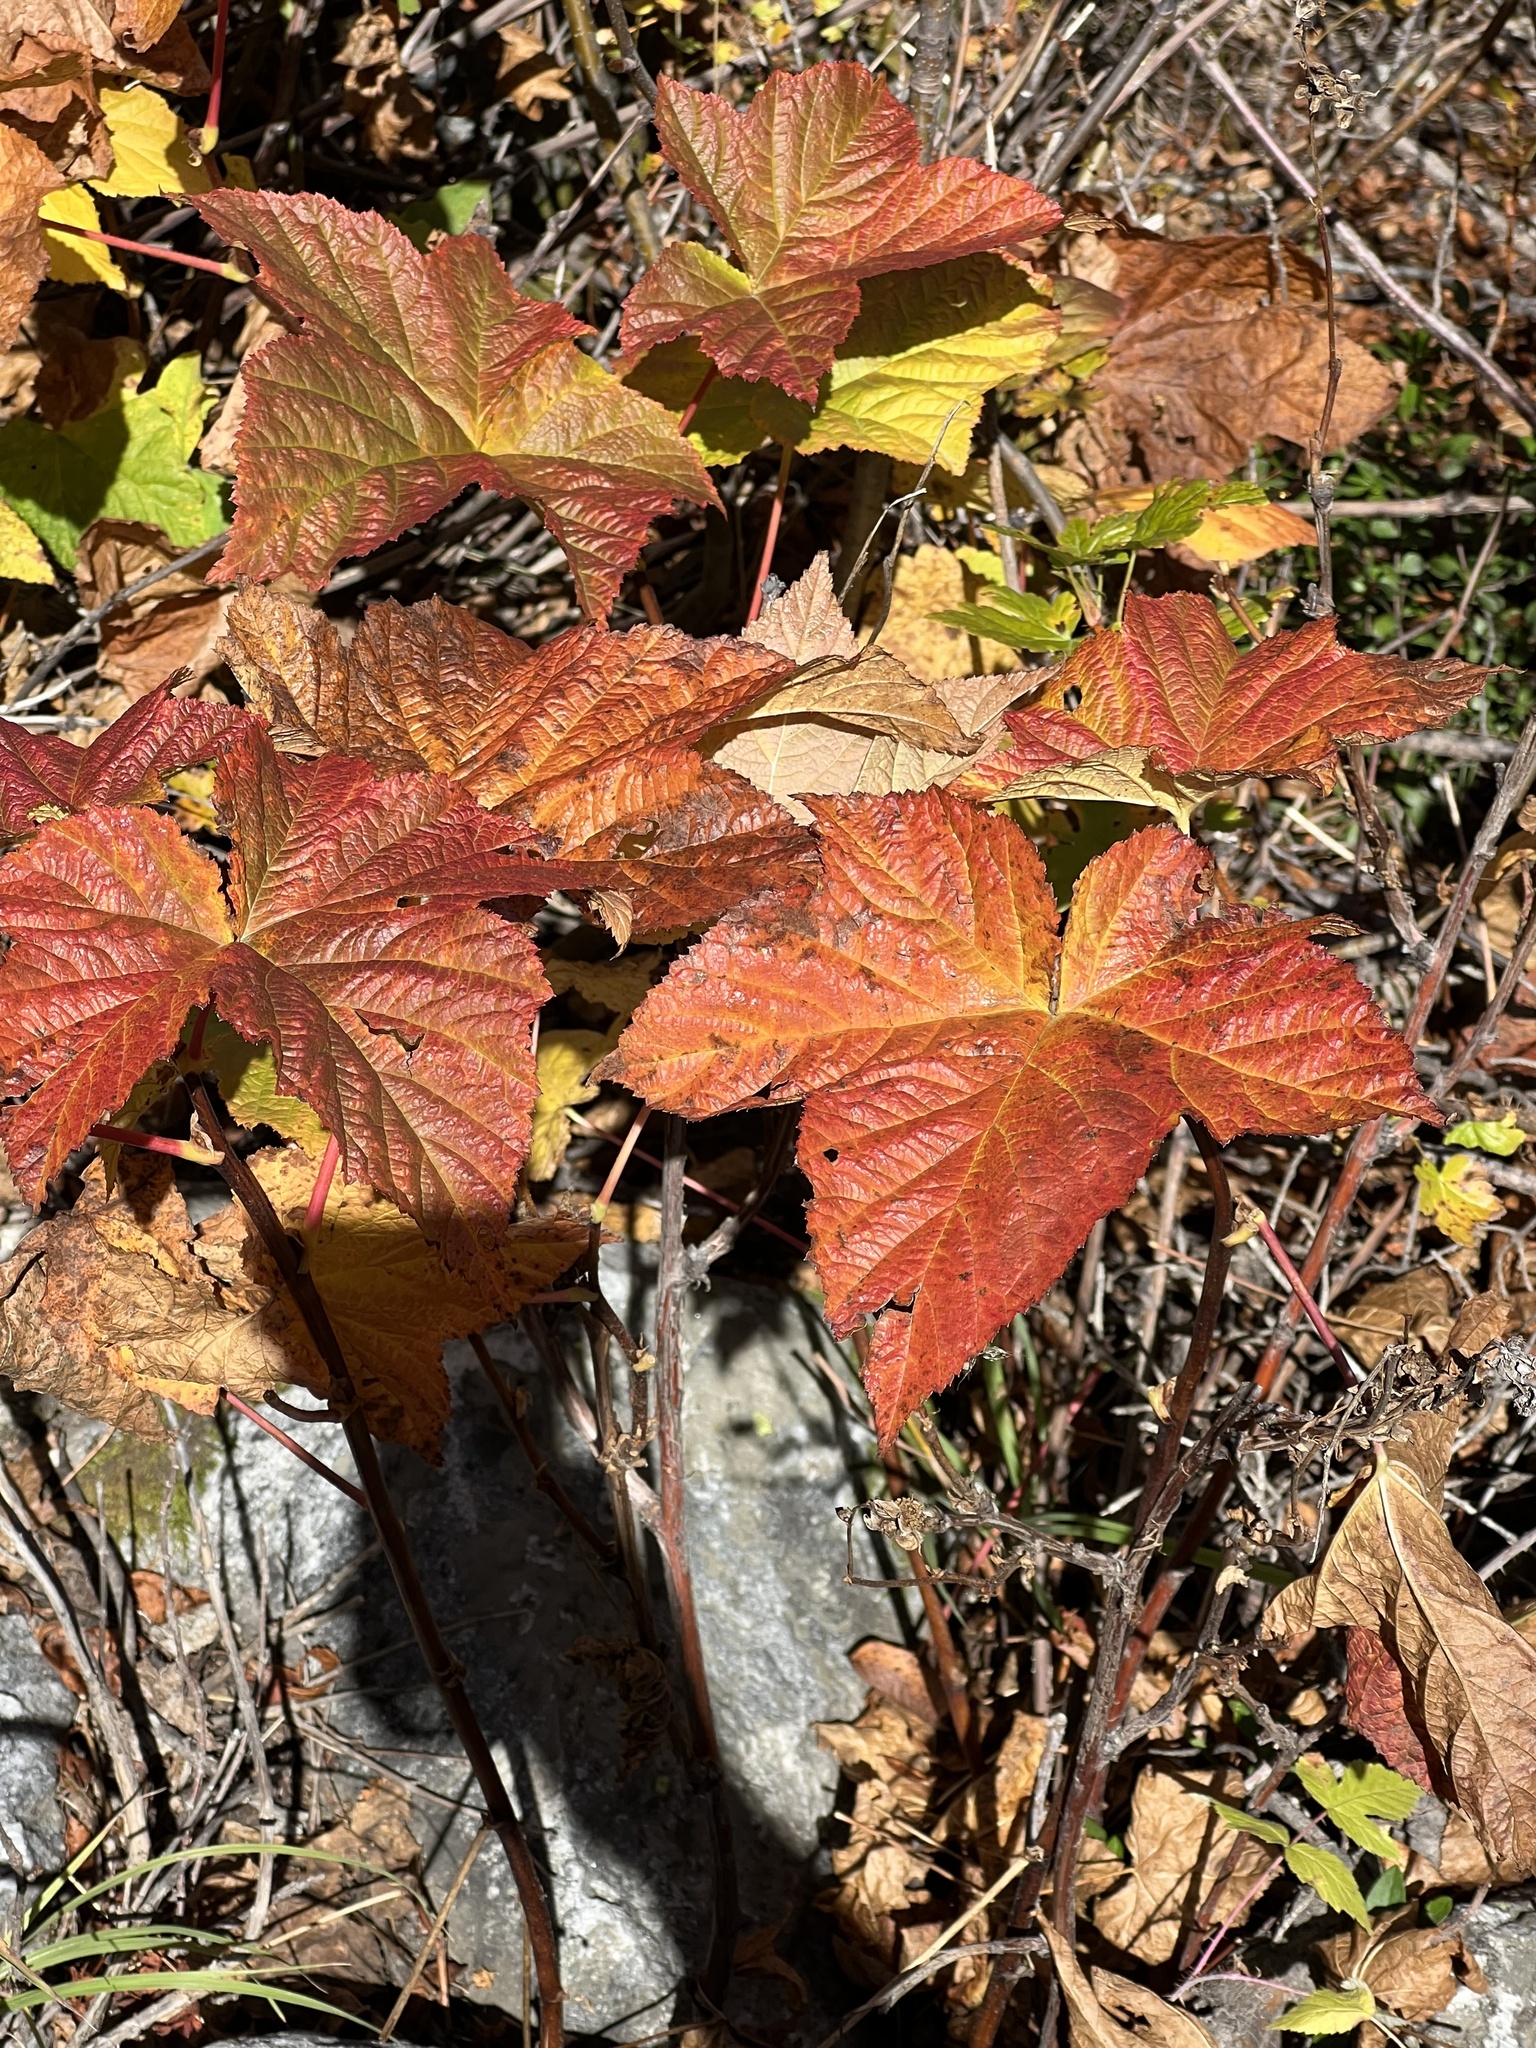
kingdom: Plantae
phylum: Tracheophyta
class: Magnoliopsida
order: Rosales
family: Rosaceae
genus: Rubus
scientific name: Rubus parviflorus
